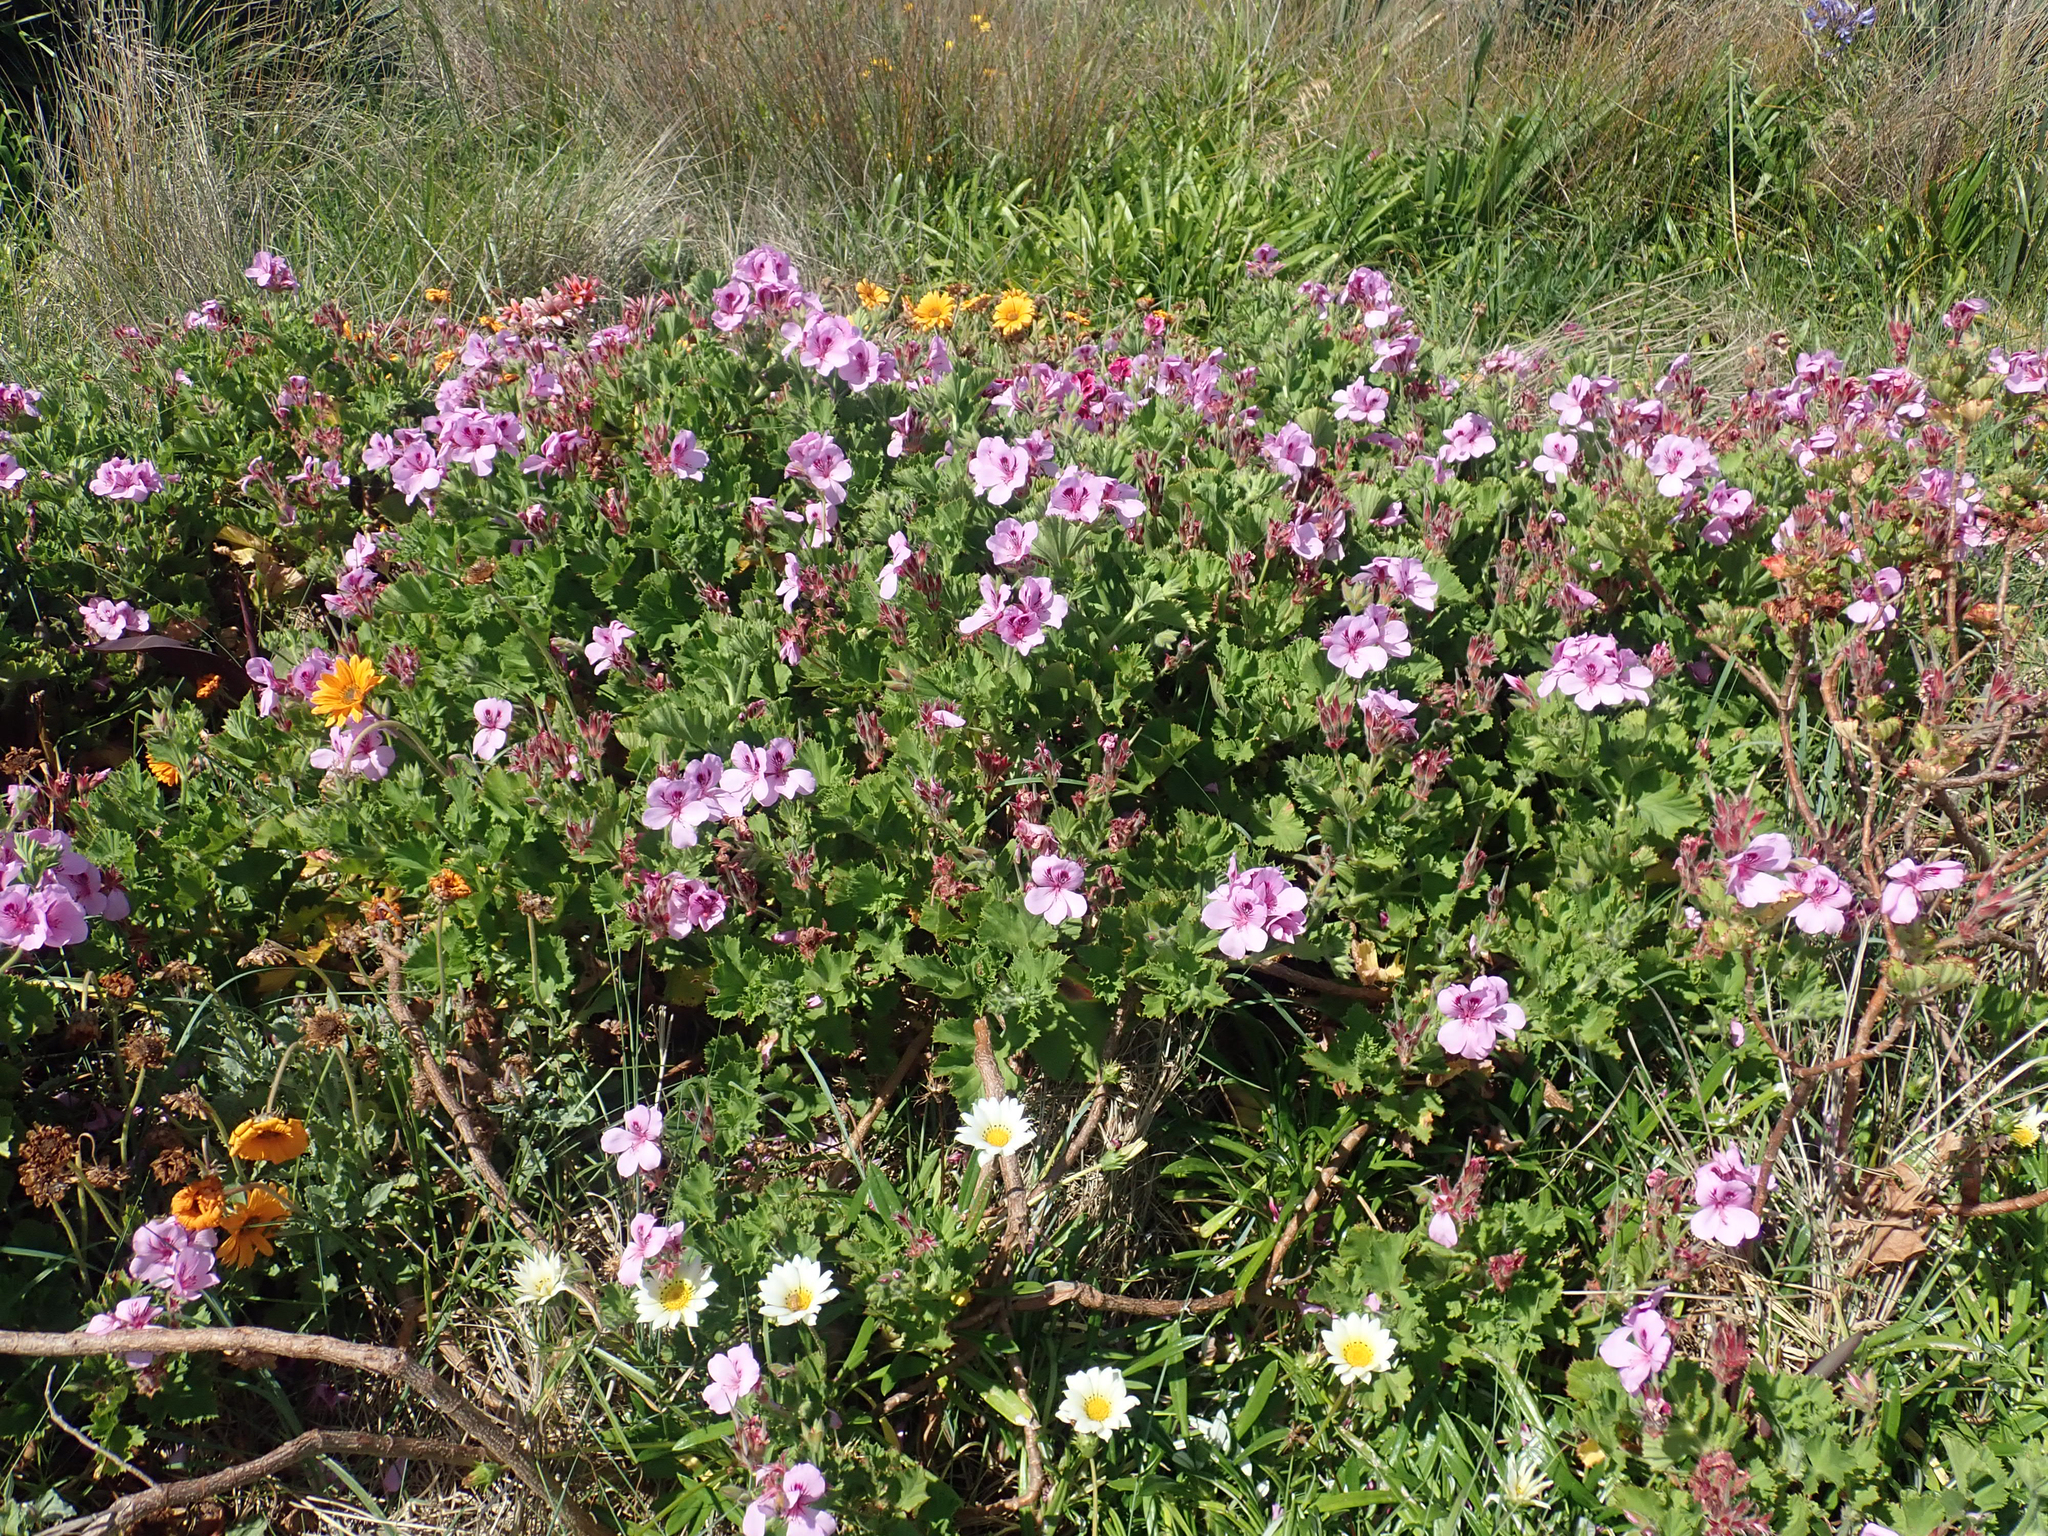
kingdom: Plantae
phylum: Tracheophyta
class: Magnoliopsida
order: Geraniales
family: Geraniaceae
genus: Pelargonium
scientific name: Pelargonium cucullatum
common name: Tree pelargonium
